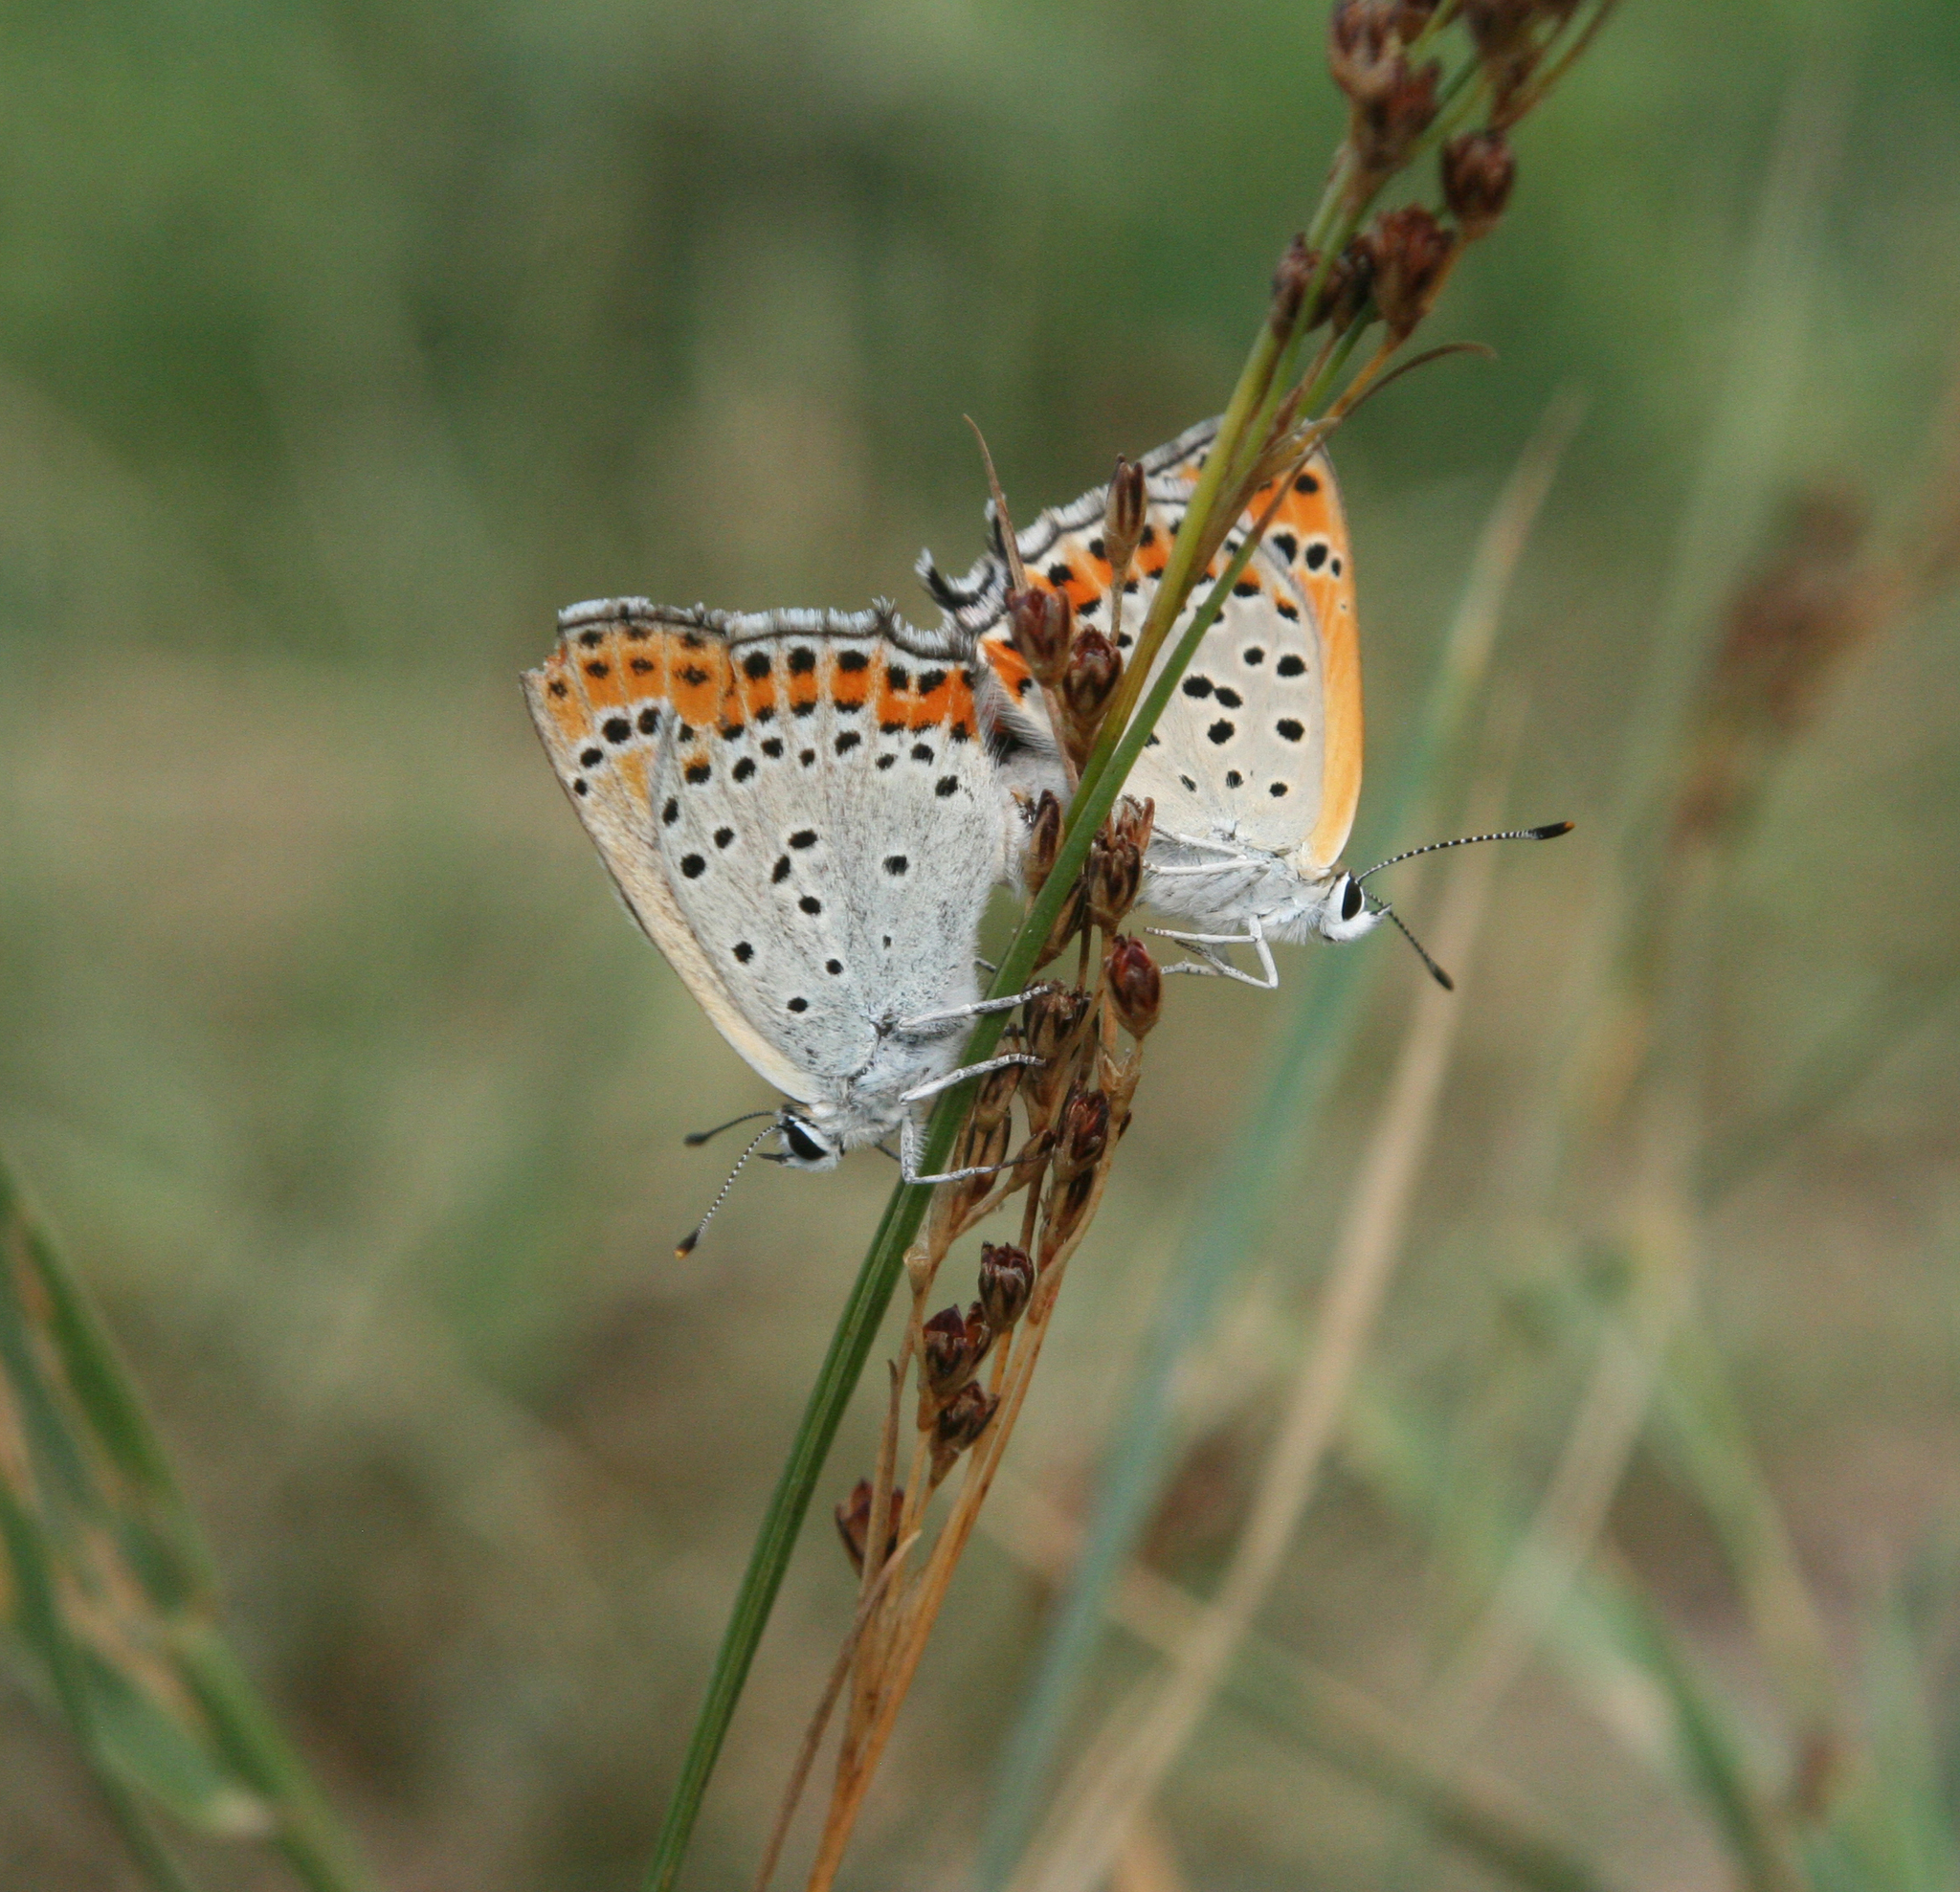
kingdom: Animalia
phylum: Arthropoda
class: Insecta
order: Lepidoptera
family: Lycaenidae
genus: Thersamonia
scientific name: Thersamonia thersamon
